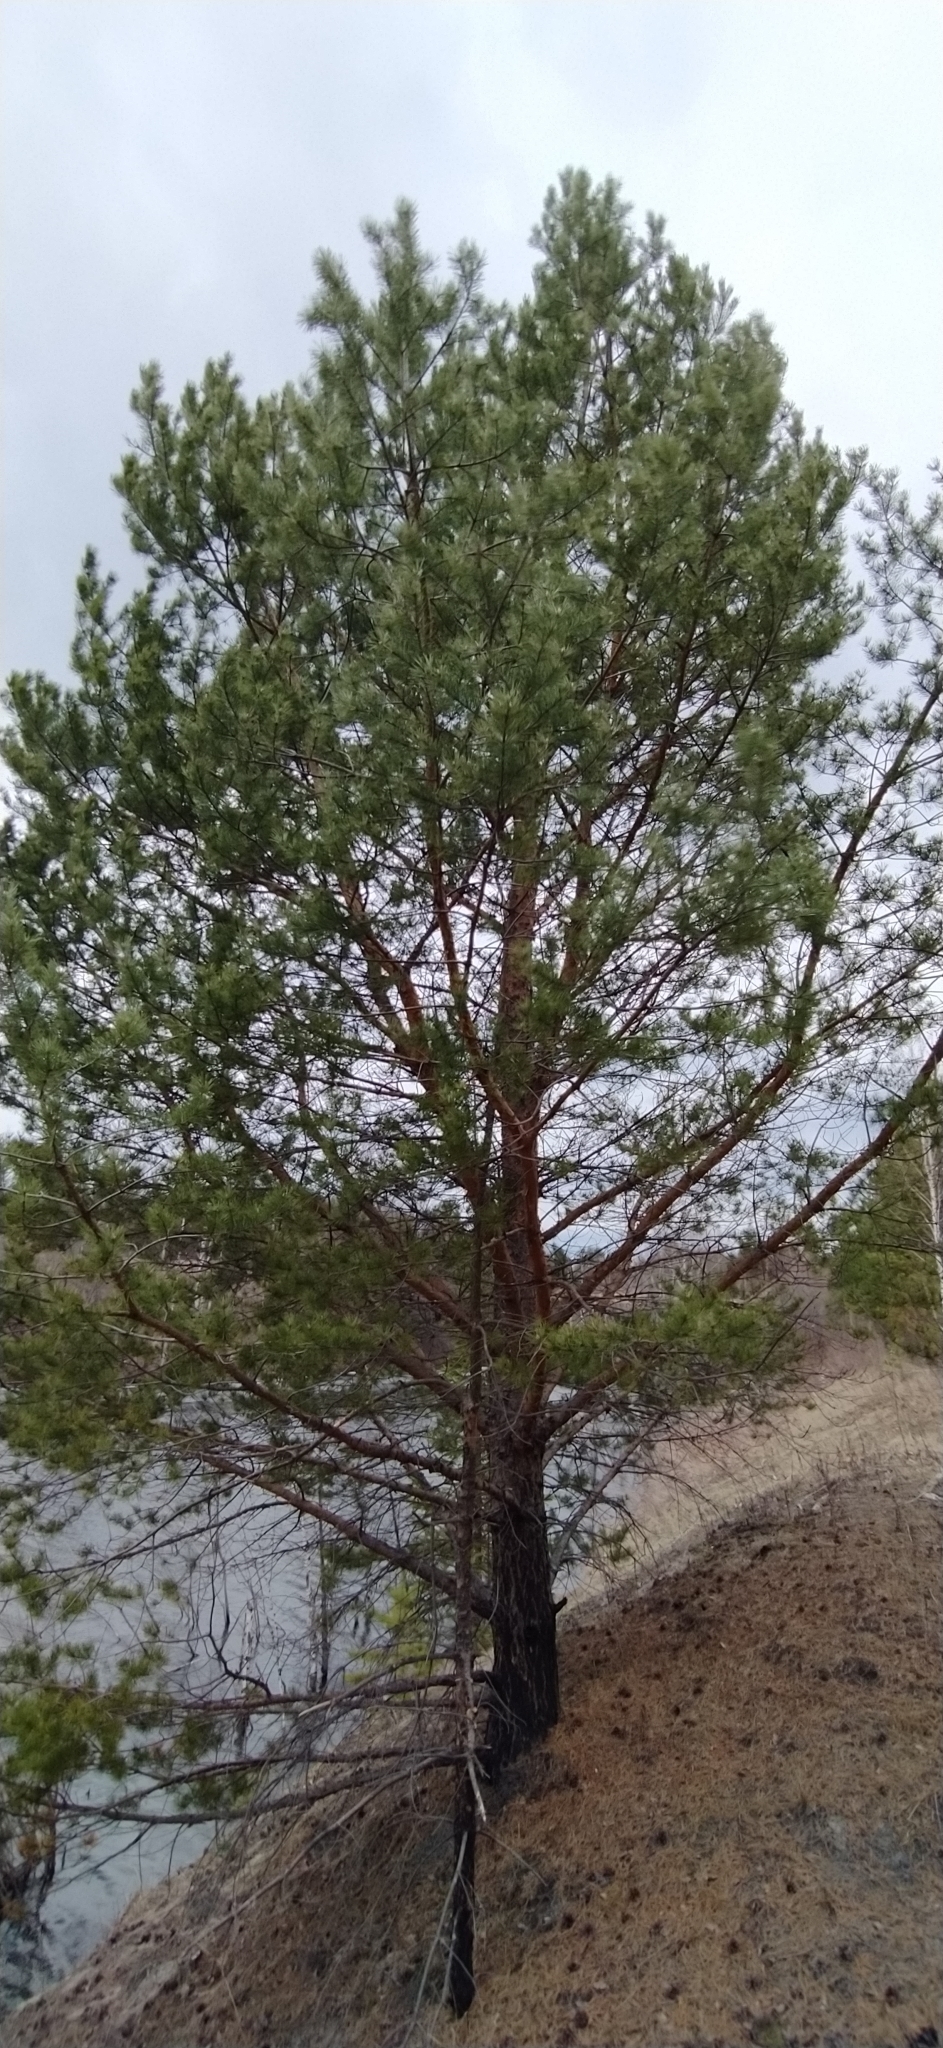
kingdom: Plantae
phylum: Tracheophyta
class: Pinopsida
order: Pinales
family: Pinaceae
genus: Pinus
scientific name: Pinus sylvestris
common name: Scots pine
